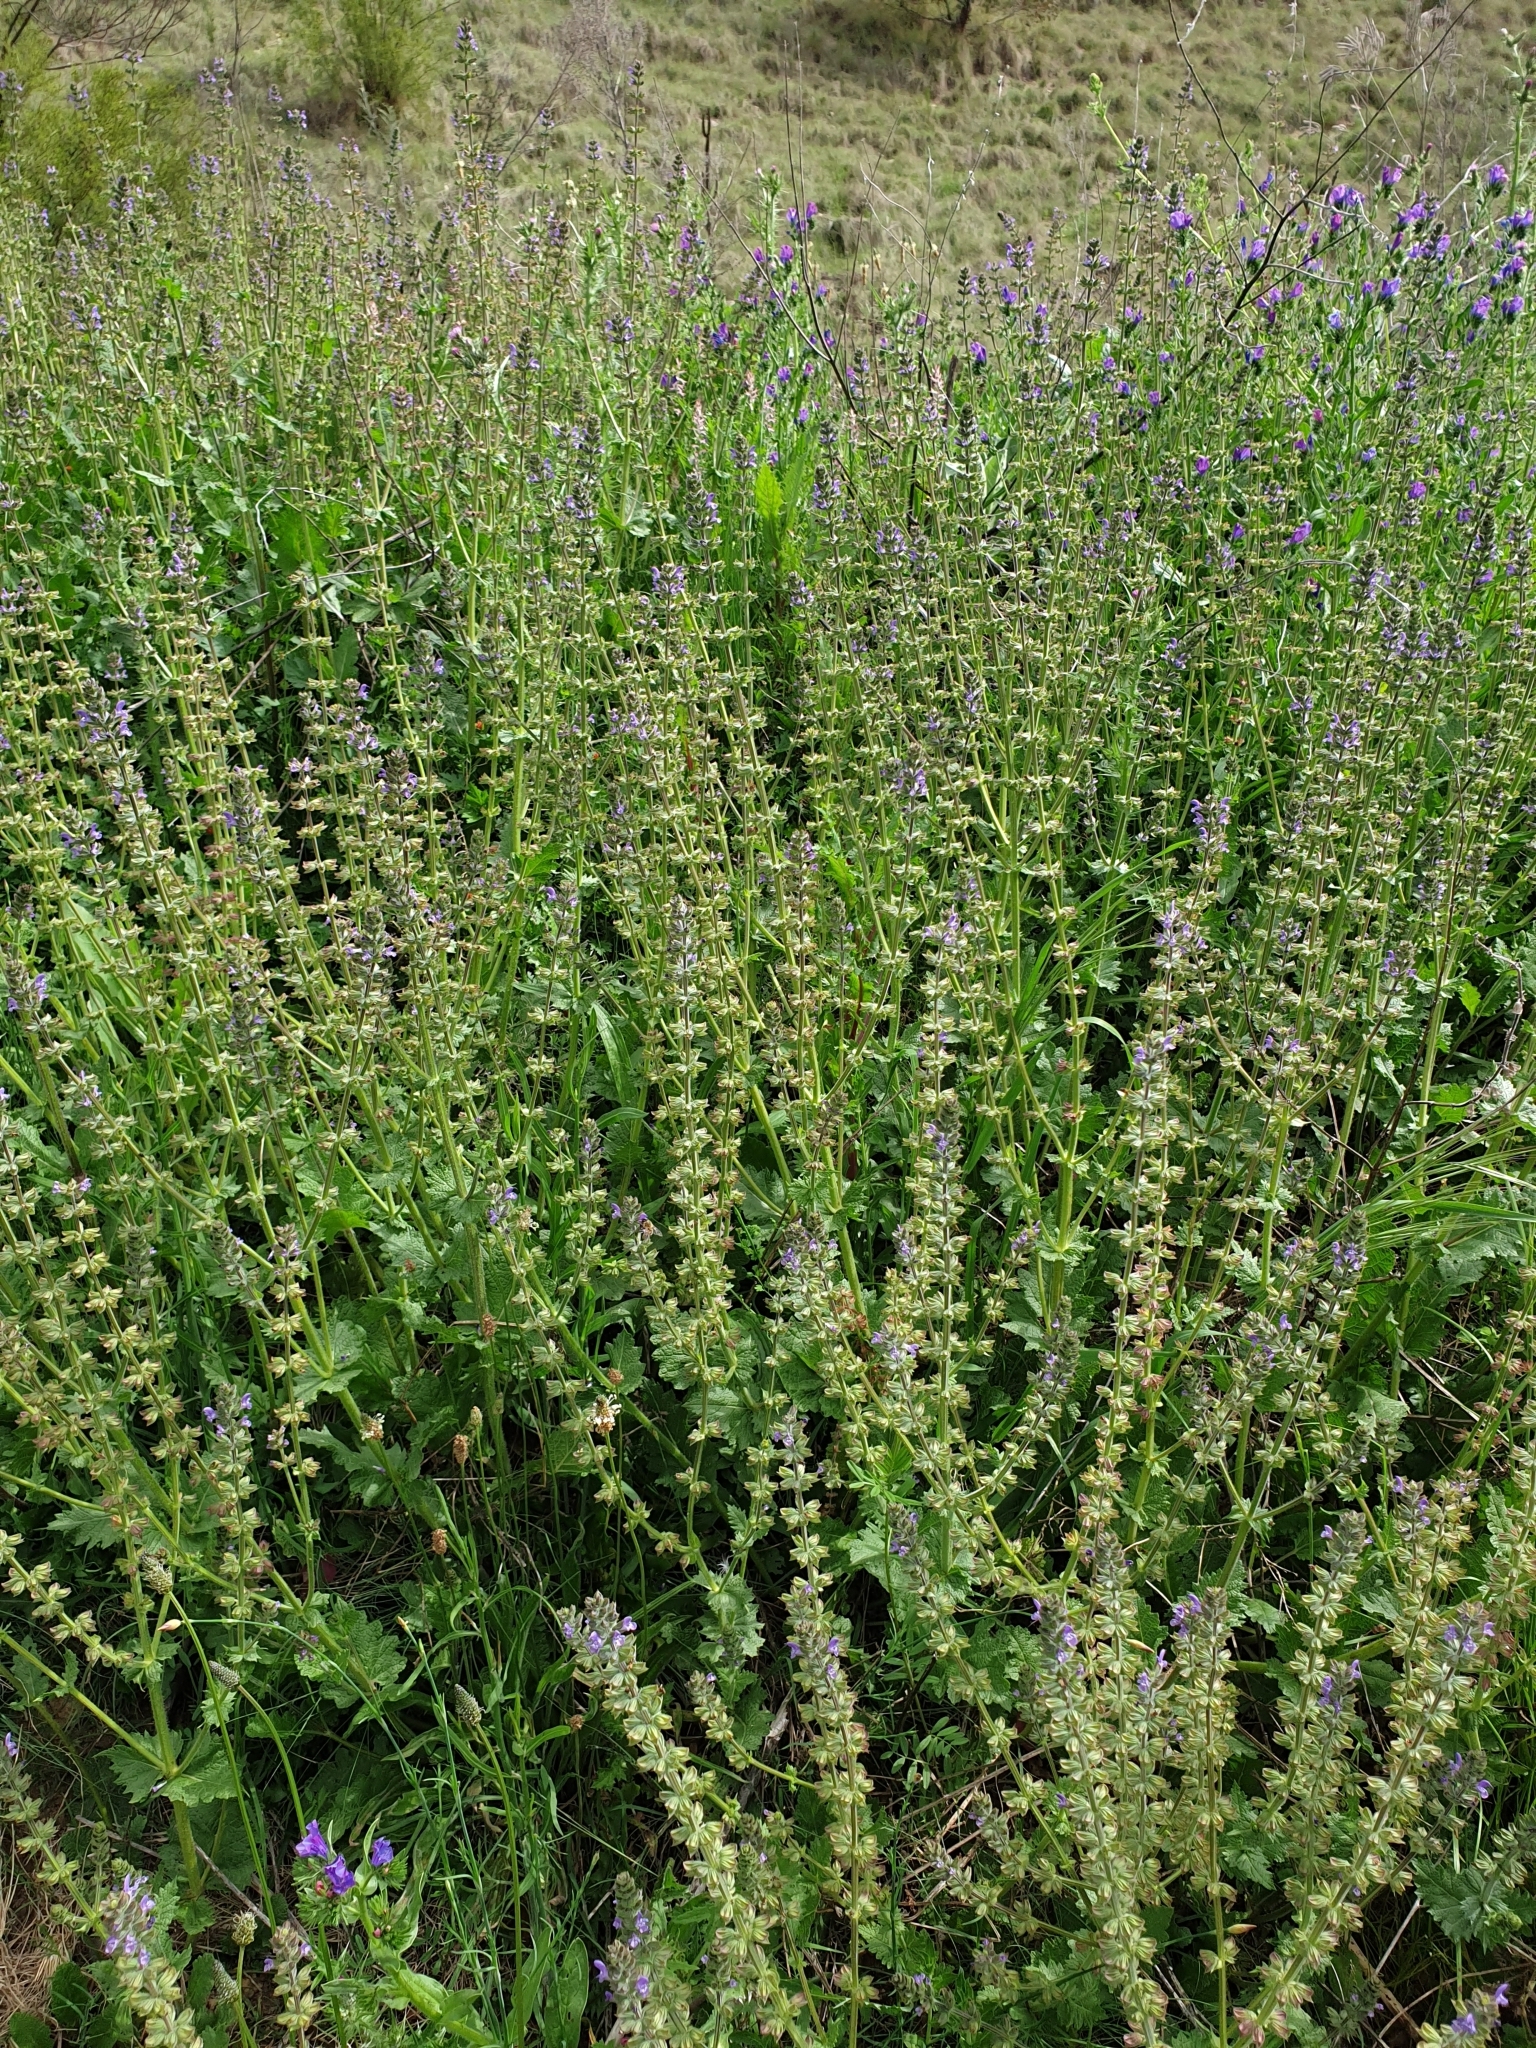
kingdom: Plantae
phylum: Tracheophyta
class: Magnoliopsida
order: Lamiales
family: Lamiaceae
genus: Salvia
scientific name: Salvia verbenaca
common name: Wild clary
